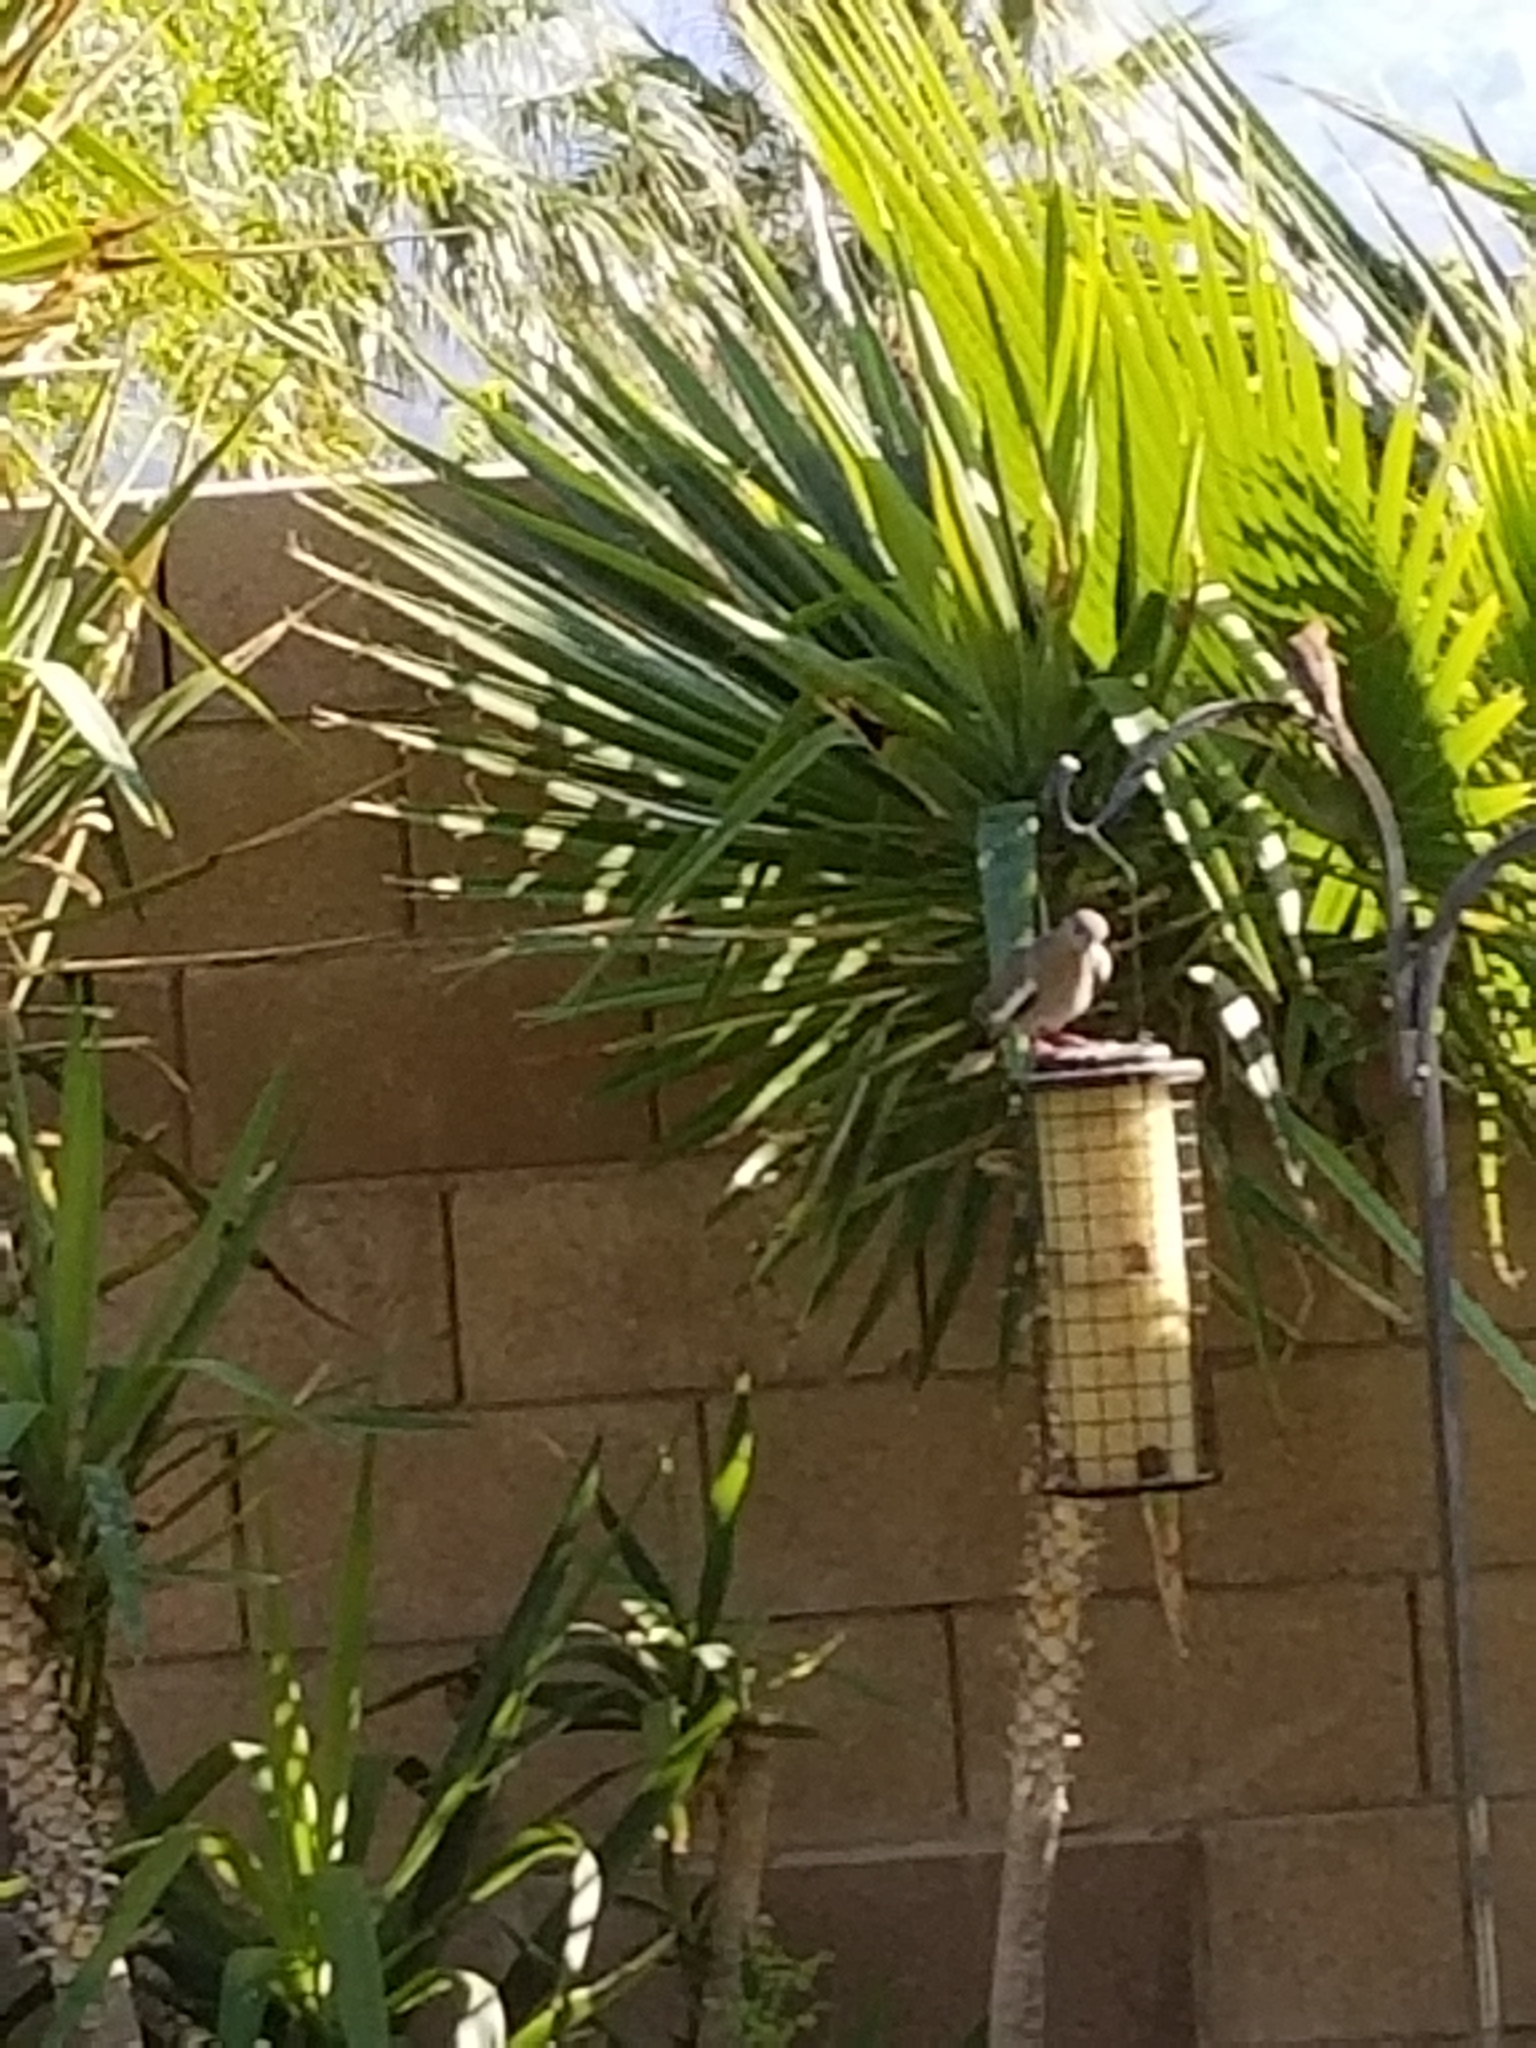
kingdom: Animalia
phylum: Chordata
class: Aves
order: Columbiformes
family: Columbidae
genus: Zenaida
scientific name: Zenaida asiatica
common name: White-winged dove
